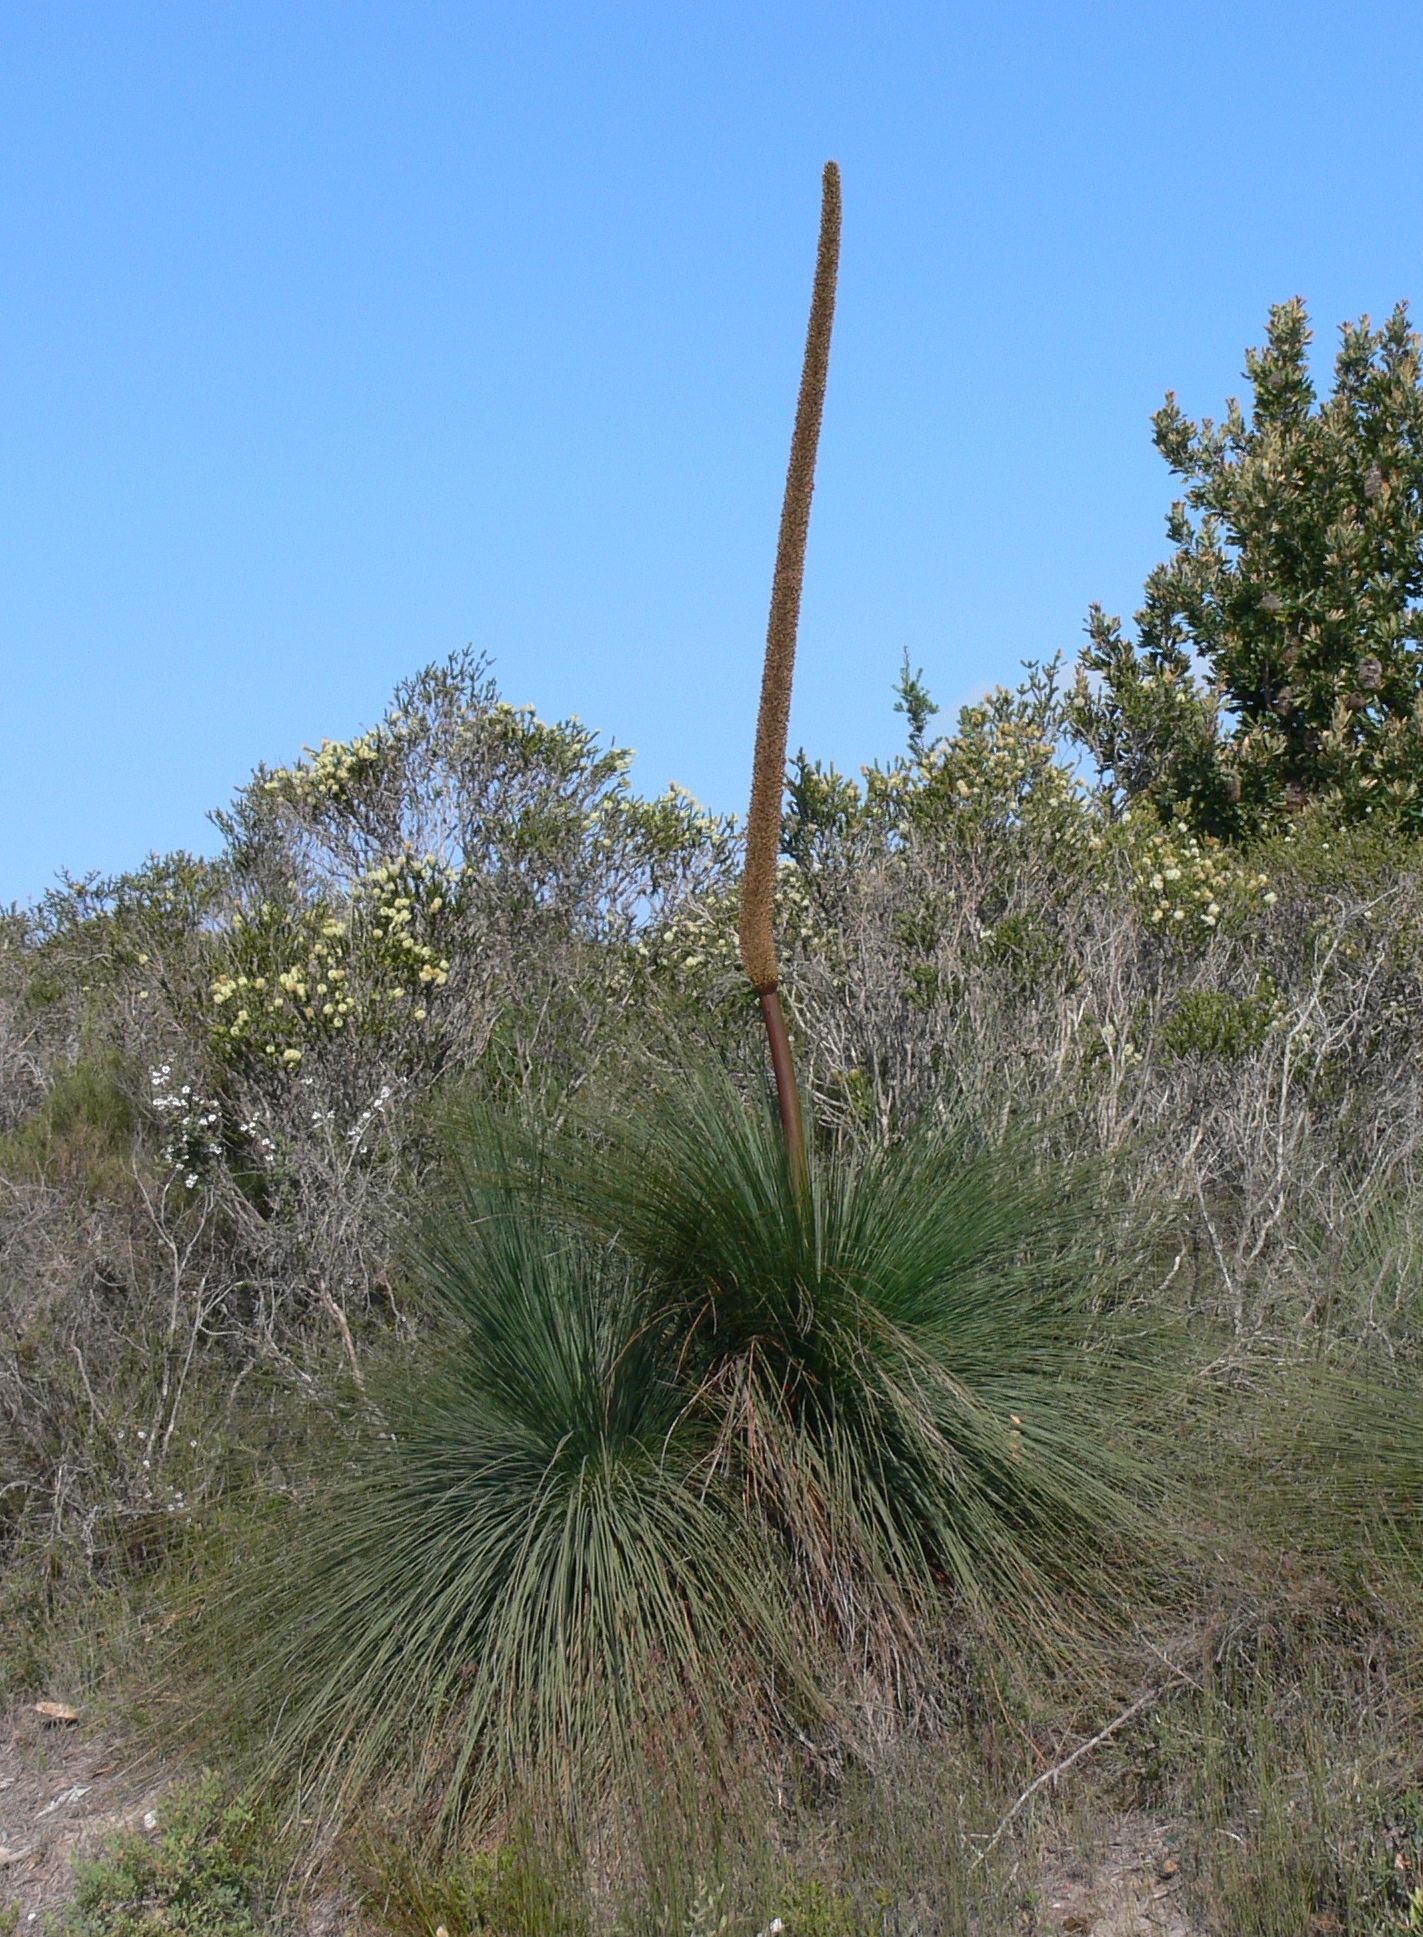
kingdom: Plantae
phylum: Tracheophyta
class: Liliopsida
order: Asparagales
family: Asphodelaceae
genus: Xanthorrhoea
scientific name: Xanthorrhoea australis
